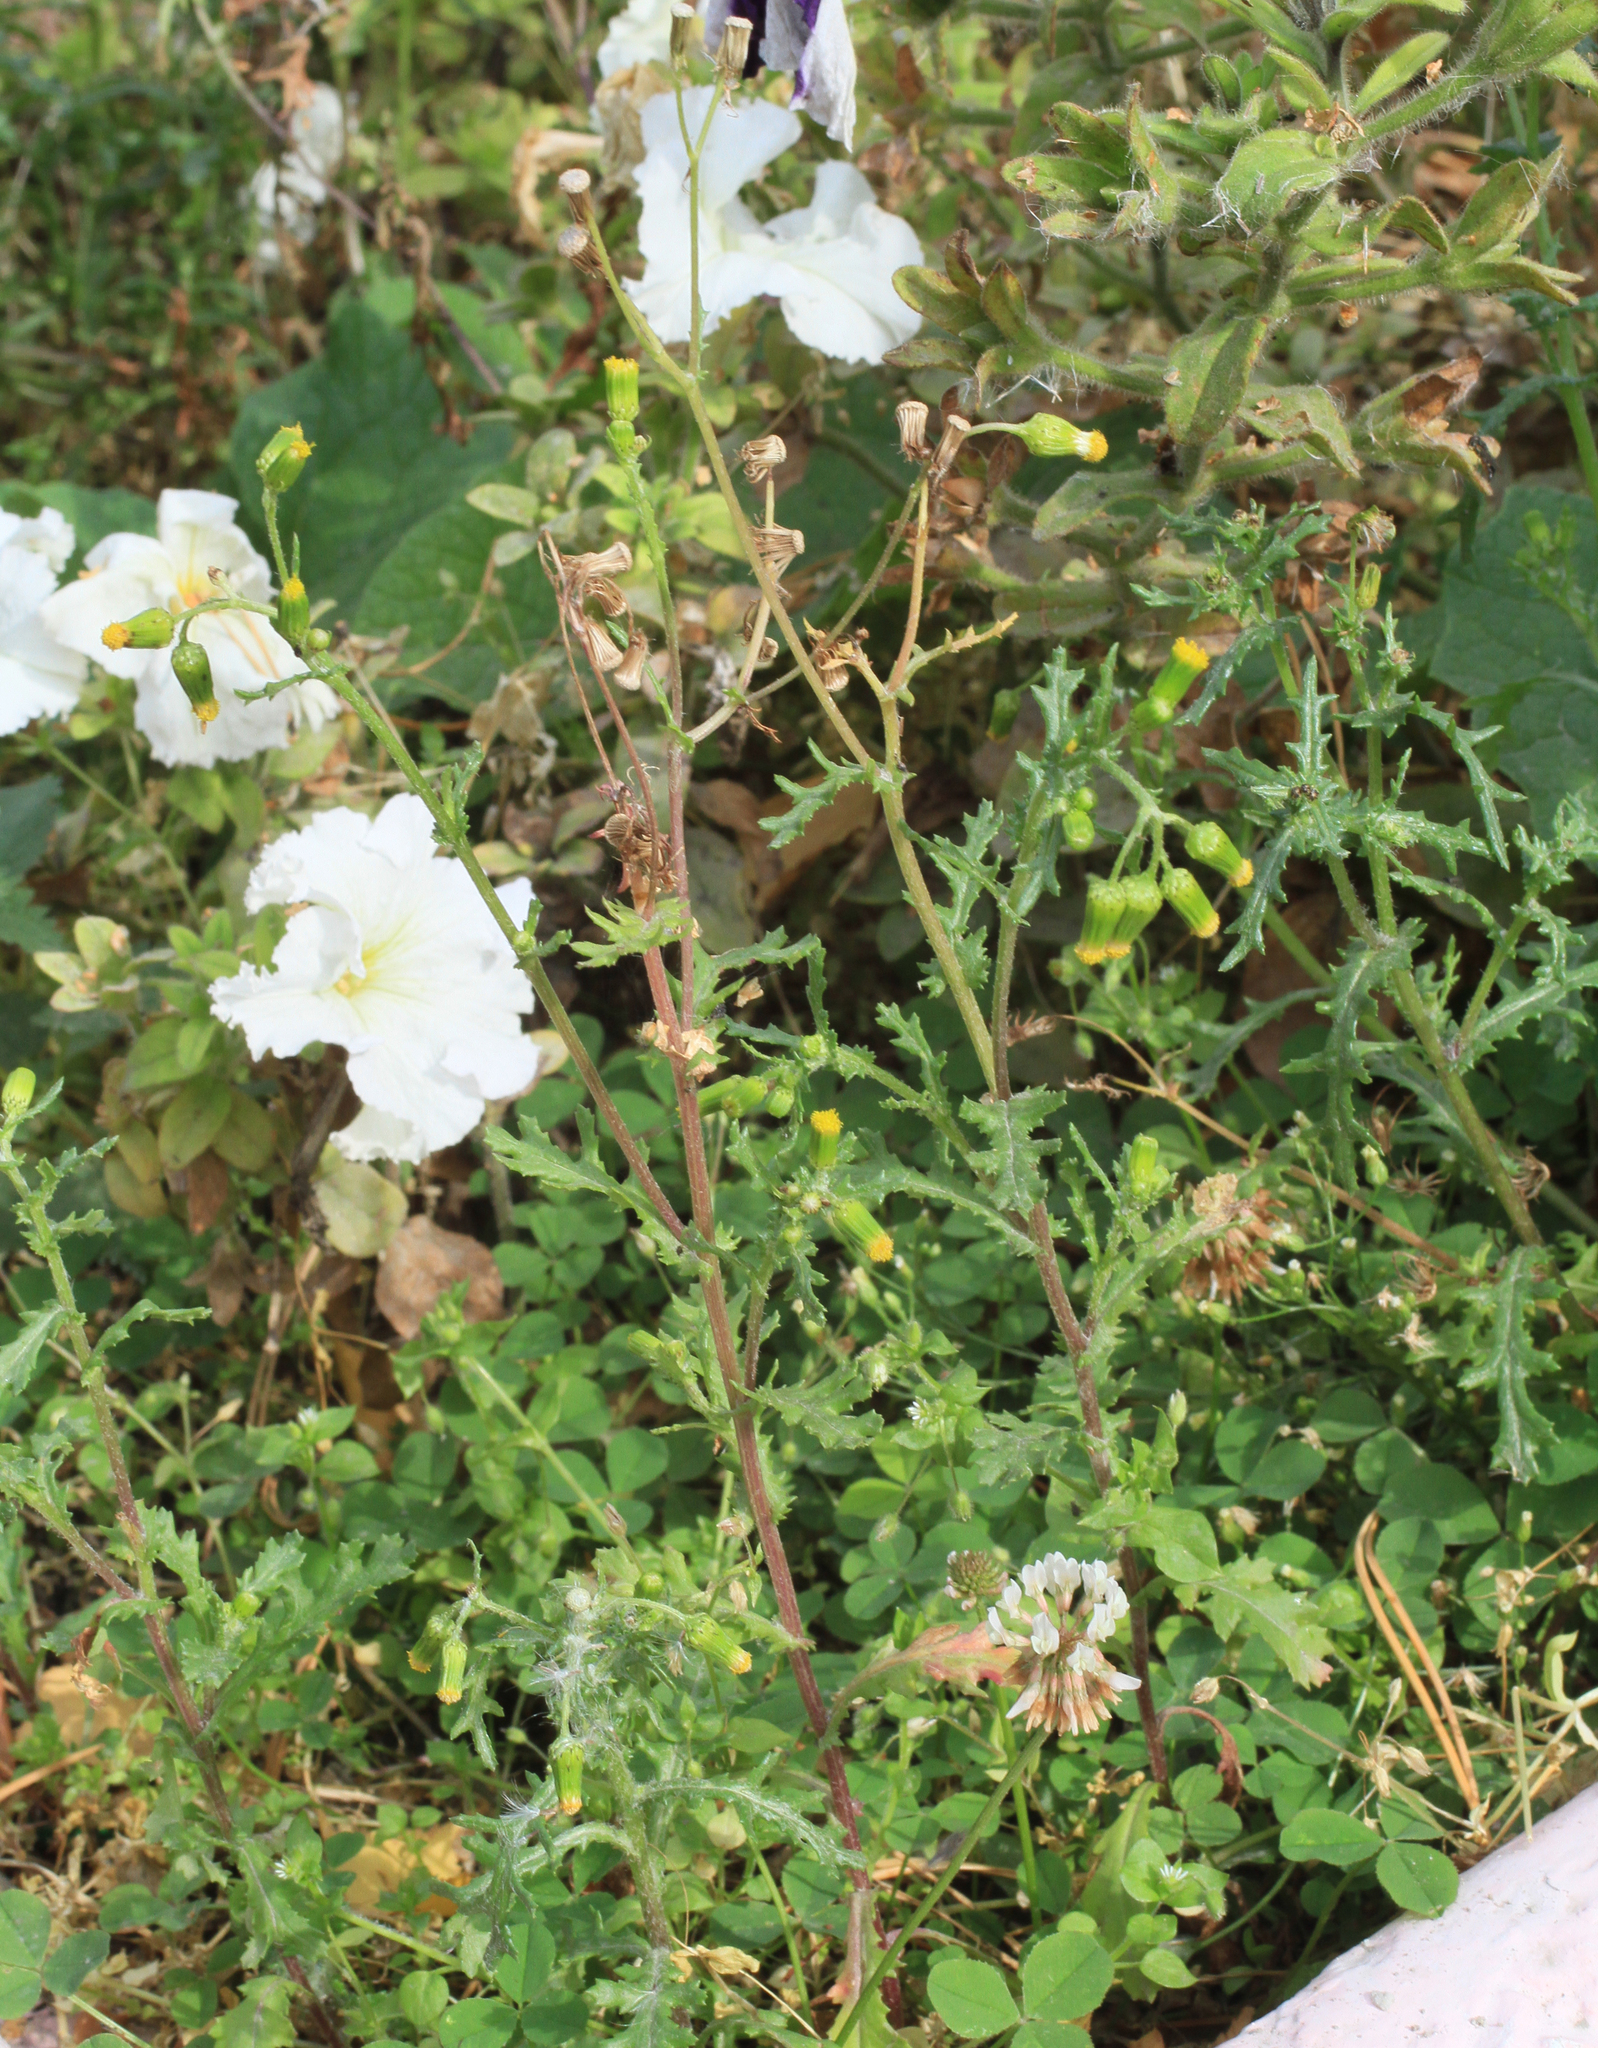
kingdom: Plantae
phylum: Tracheophyta
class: Magnoliopsida
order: Asterales
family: Asteraceae
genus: Senecio
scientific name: Senecio vulgaris
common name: Old-man-in-the-spring
